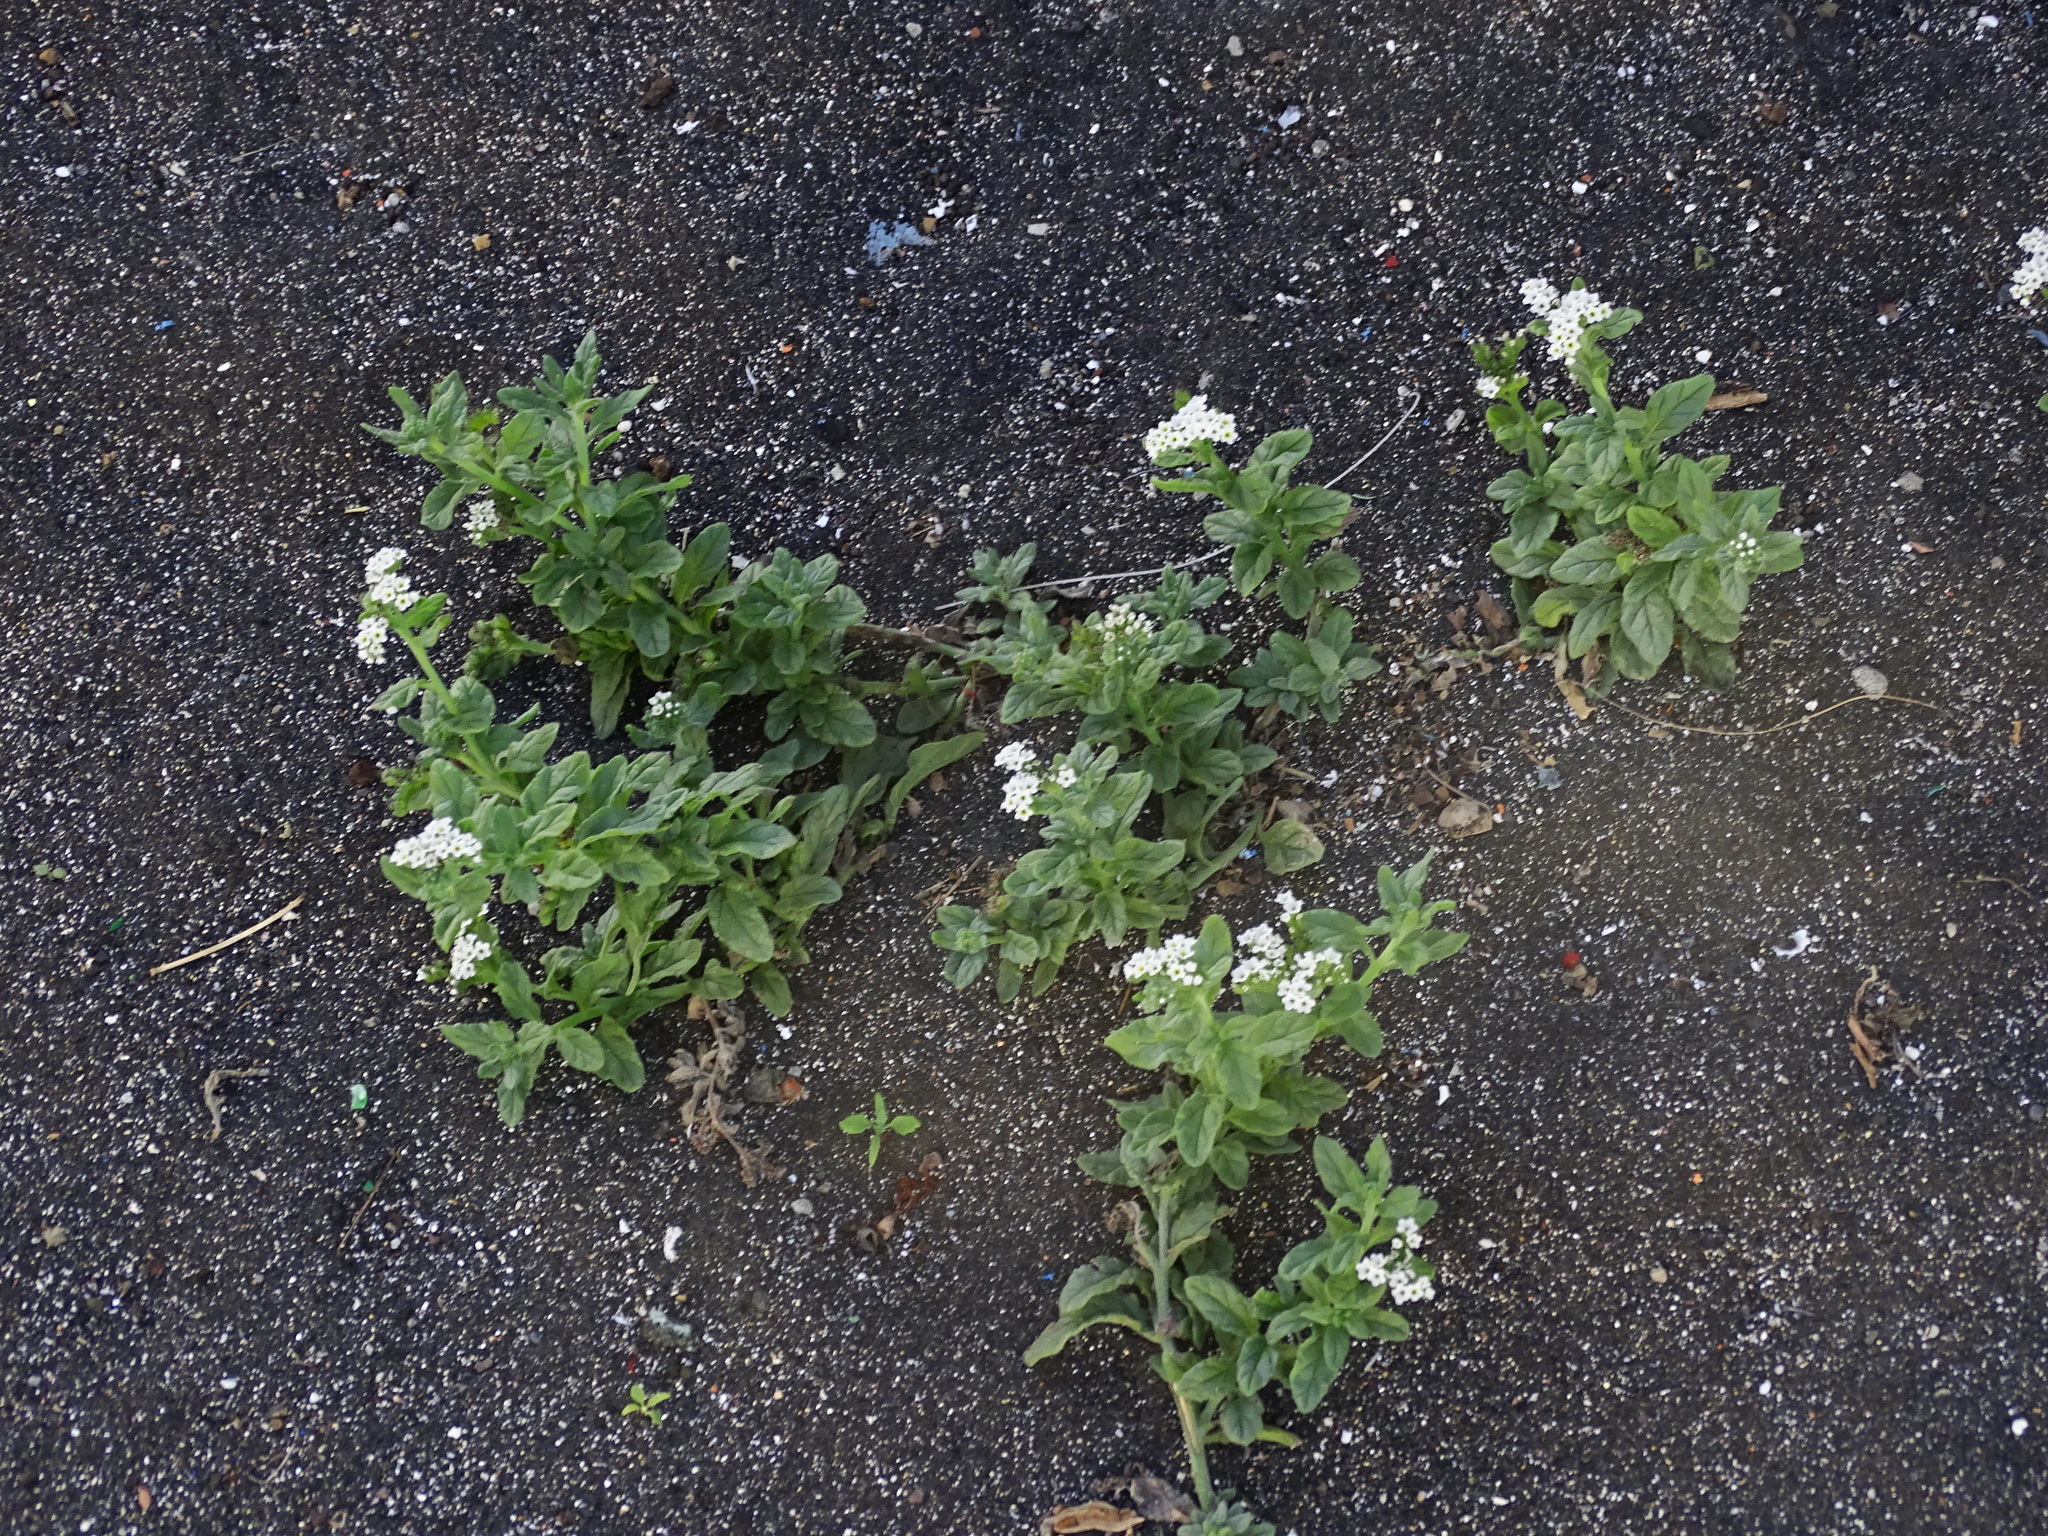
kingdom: Plantae
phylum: Tracheophyta
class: Magnoliopsida
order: Boraginales
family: Heliotropiaceae
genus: Heliotropium
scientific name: Heliotropium ramosissimum
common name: Wavy heliotrope
